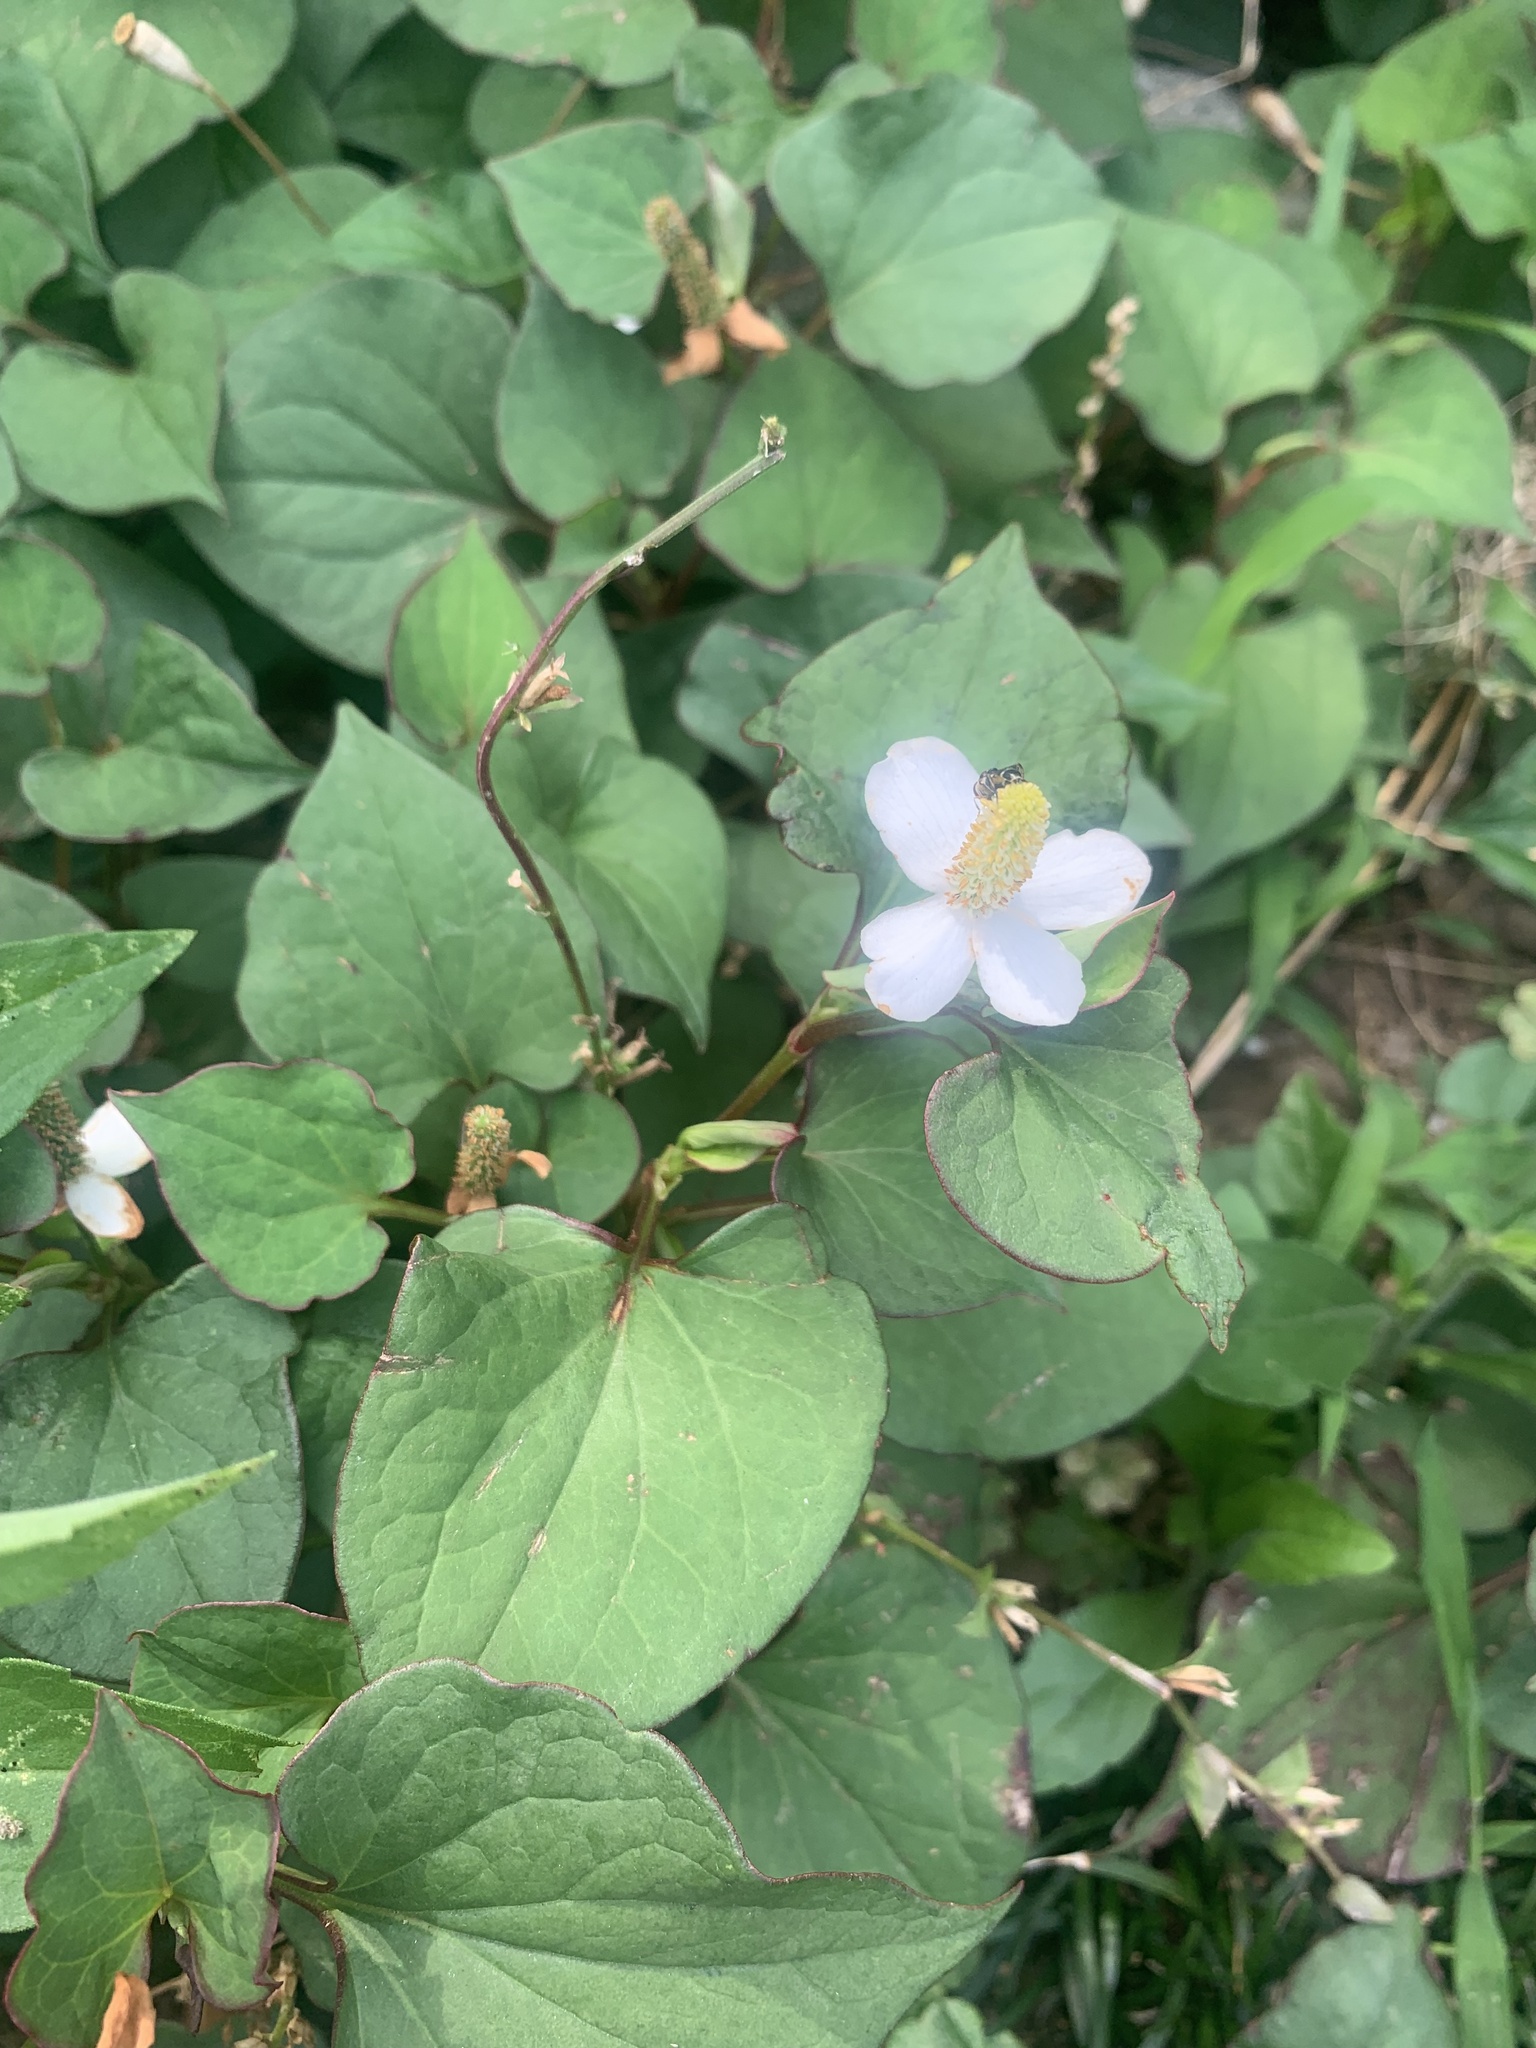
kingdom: Plantae
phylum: Tracheophyta
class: Magnoliopsida
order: Piperales
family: Saururaceae
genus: Houttuynia
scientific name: Houttuynia cordata
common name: Chameleon
